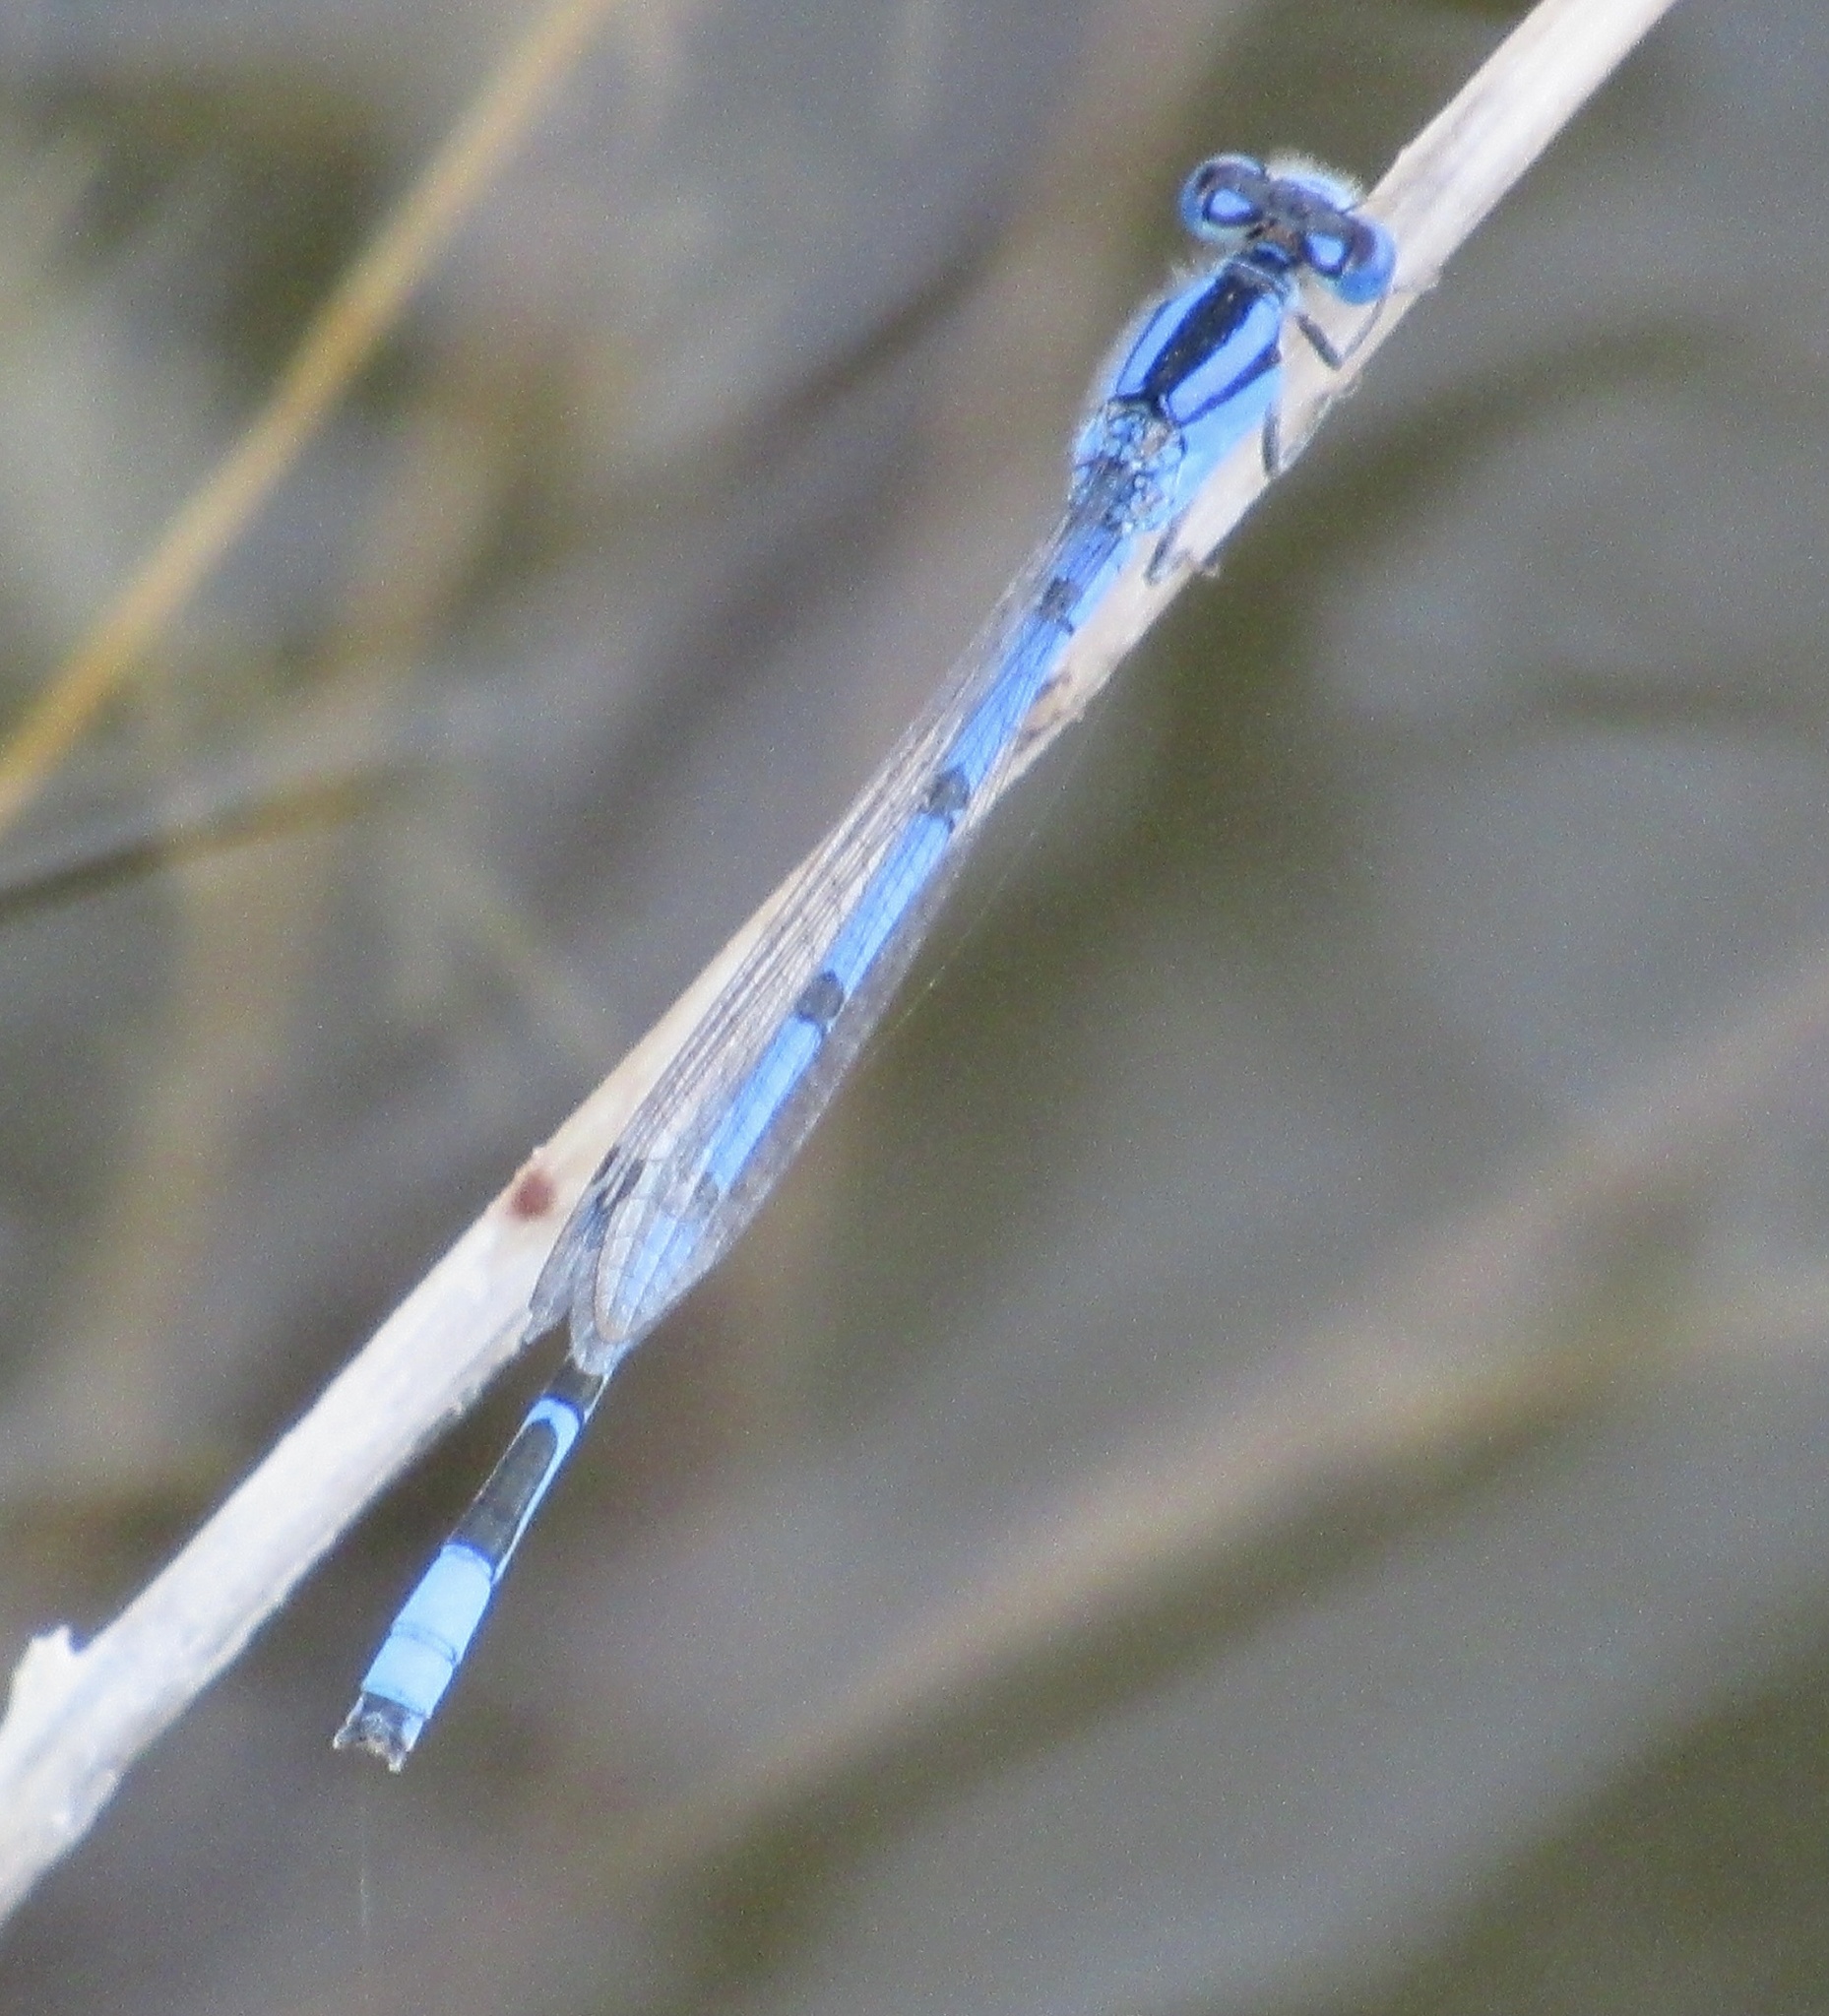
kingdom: Animalia
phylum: Arthropoda
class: Insecta
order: Odonata
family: Coenagrionidae
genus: Enallagma
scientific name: Enallagma civile
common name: Damselfly
